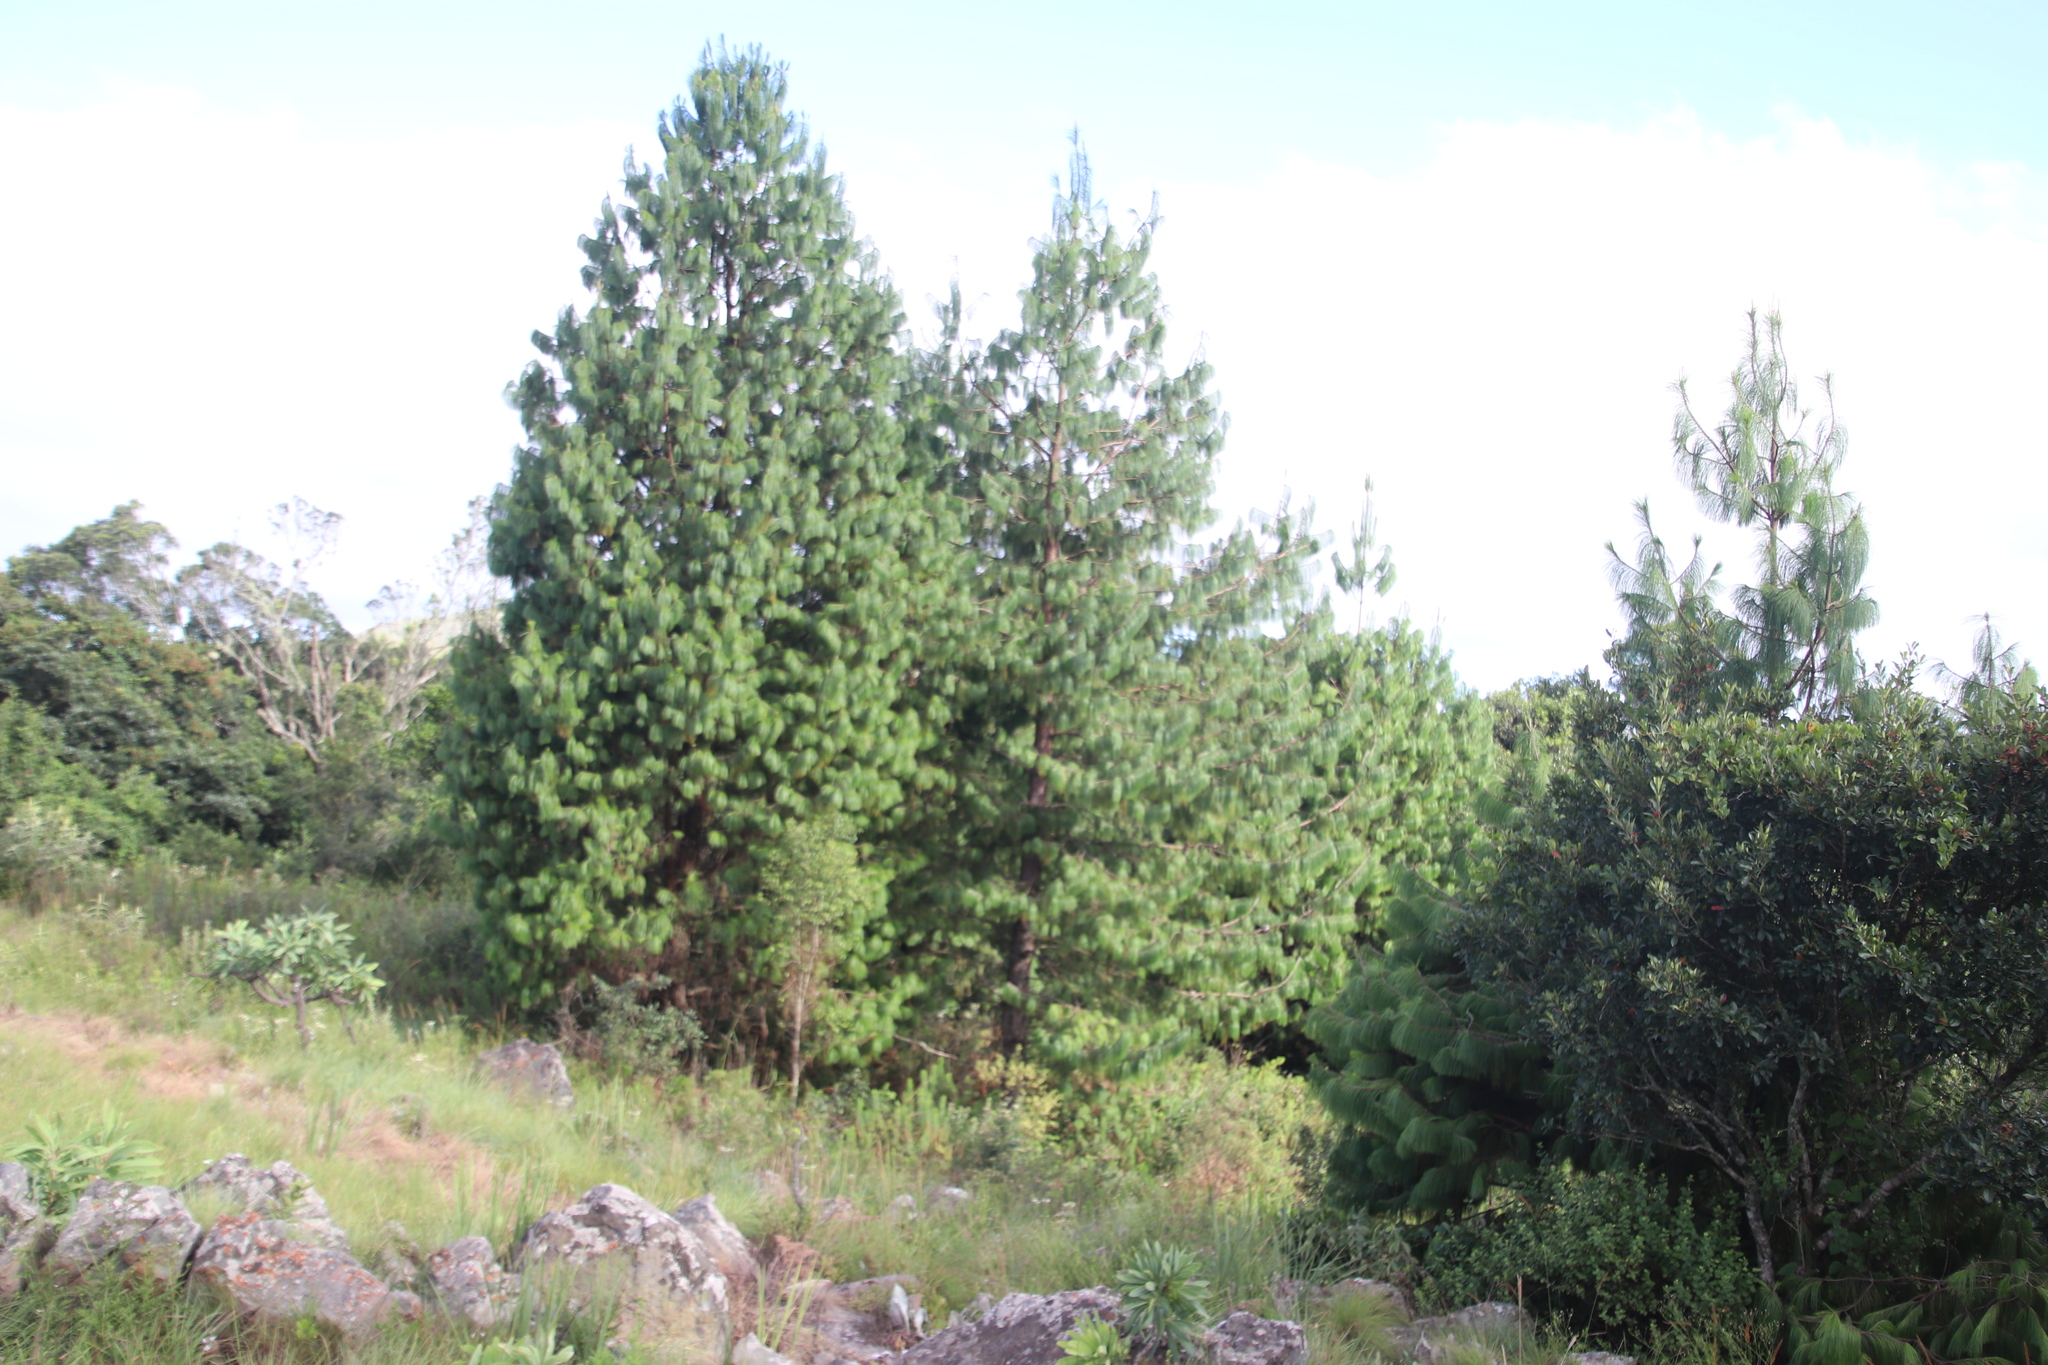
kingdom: Plantae
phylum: Tracheophyta
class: Pinopsida
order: Pinales
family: Pinaceae
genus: Pinus
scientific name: Pinus patula
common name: Mexican weeping pine
